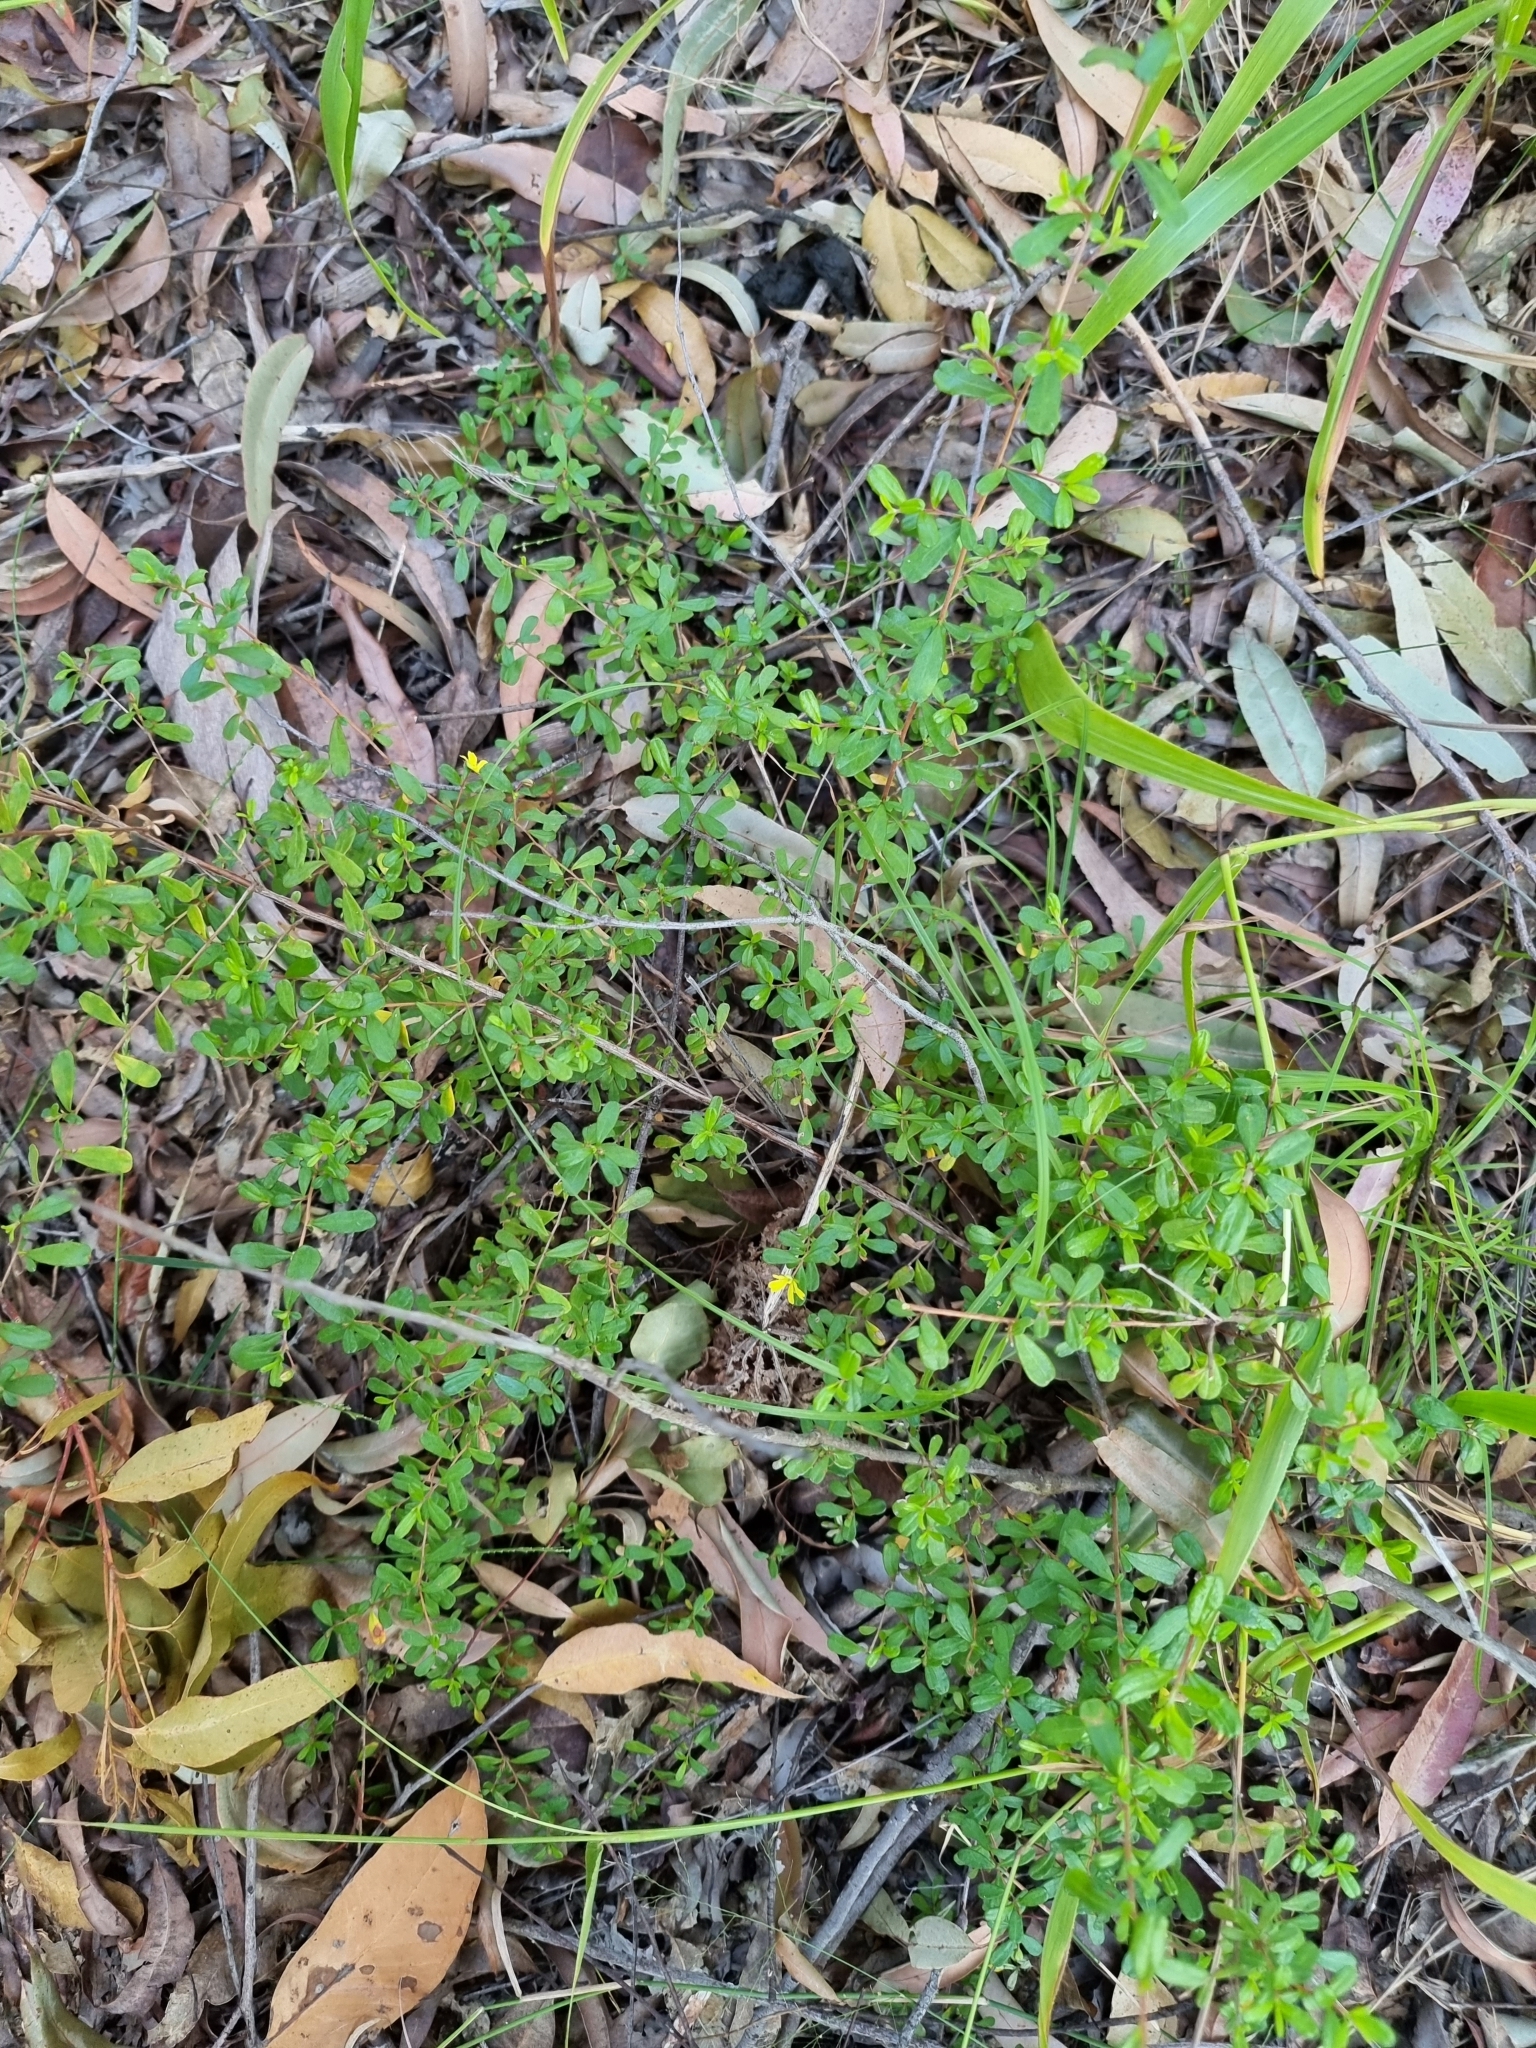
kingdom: Plantae
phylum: Tracheophyta
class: Magnoliopsida
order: Dilleniales
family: Dilleniaceae
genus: Hibbertia
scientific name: Hibbertia aspera
